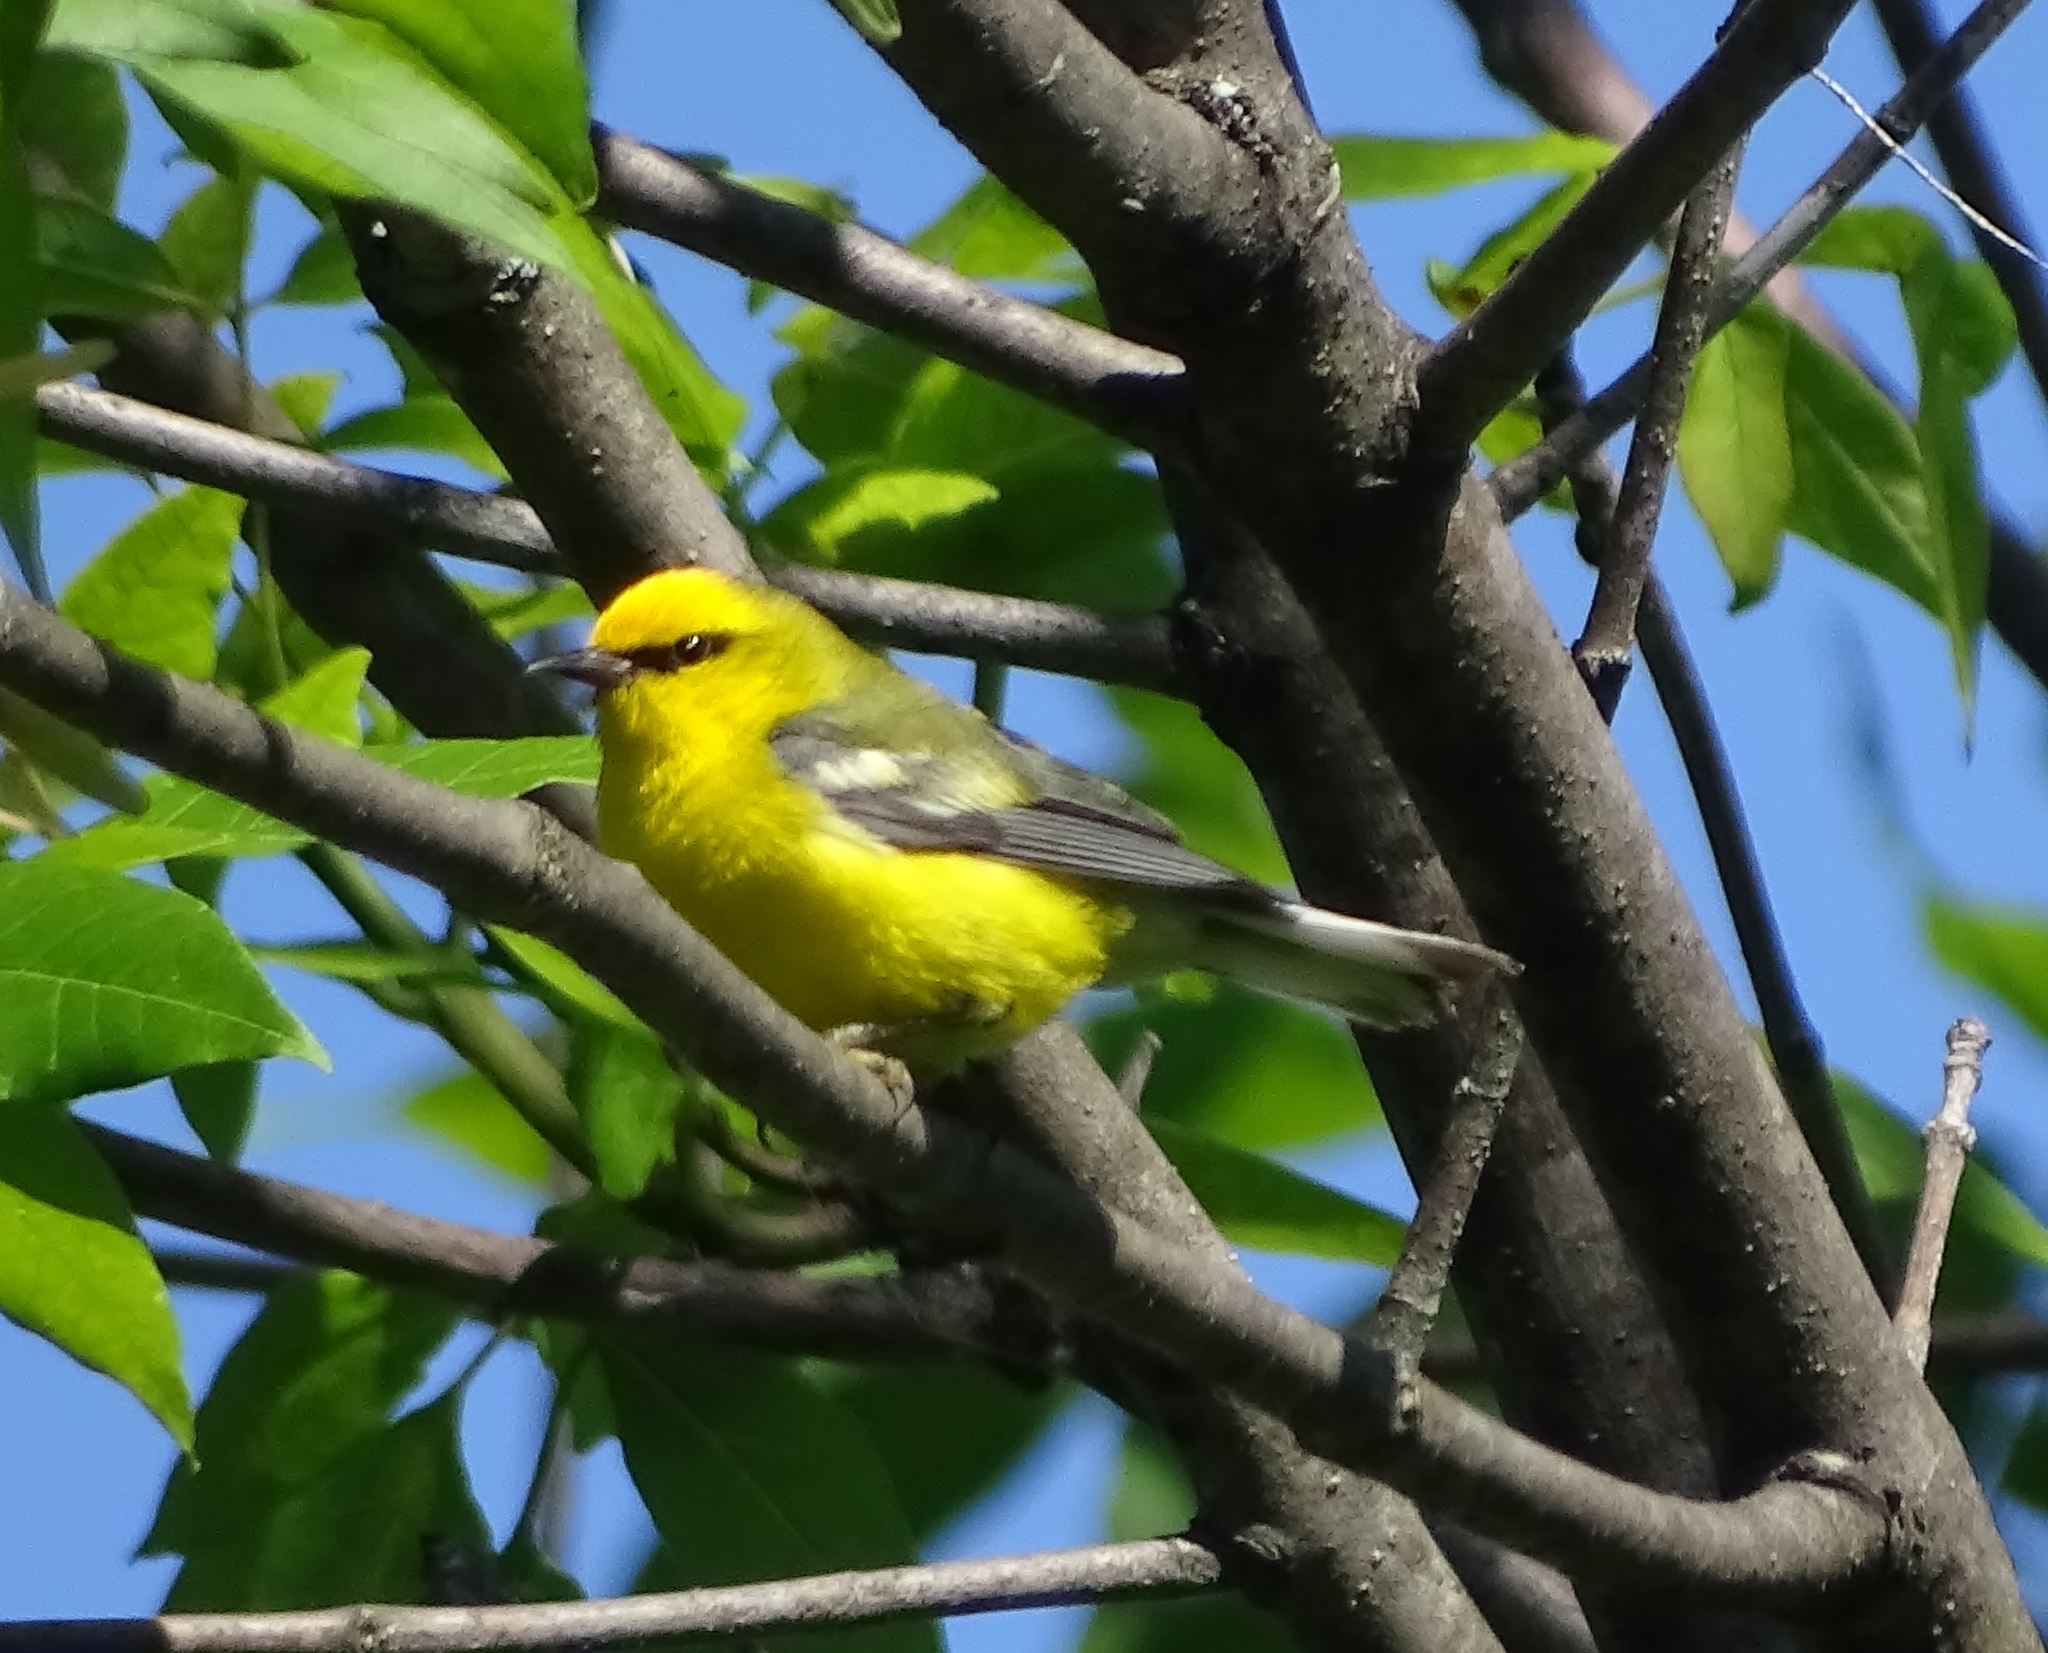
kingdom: Animalia
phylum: Chordata
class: Aves
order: Passeriformes
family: Parulidae
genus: Vermivora
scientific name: Vermivora cyanoptera
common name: Blue-winged warbler
